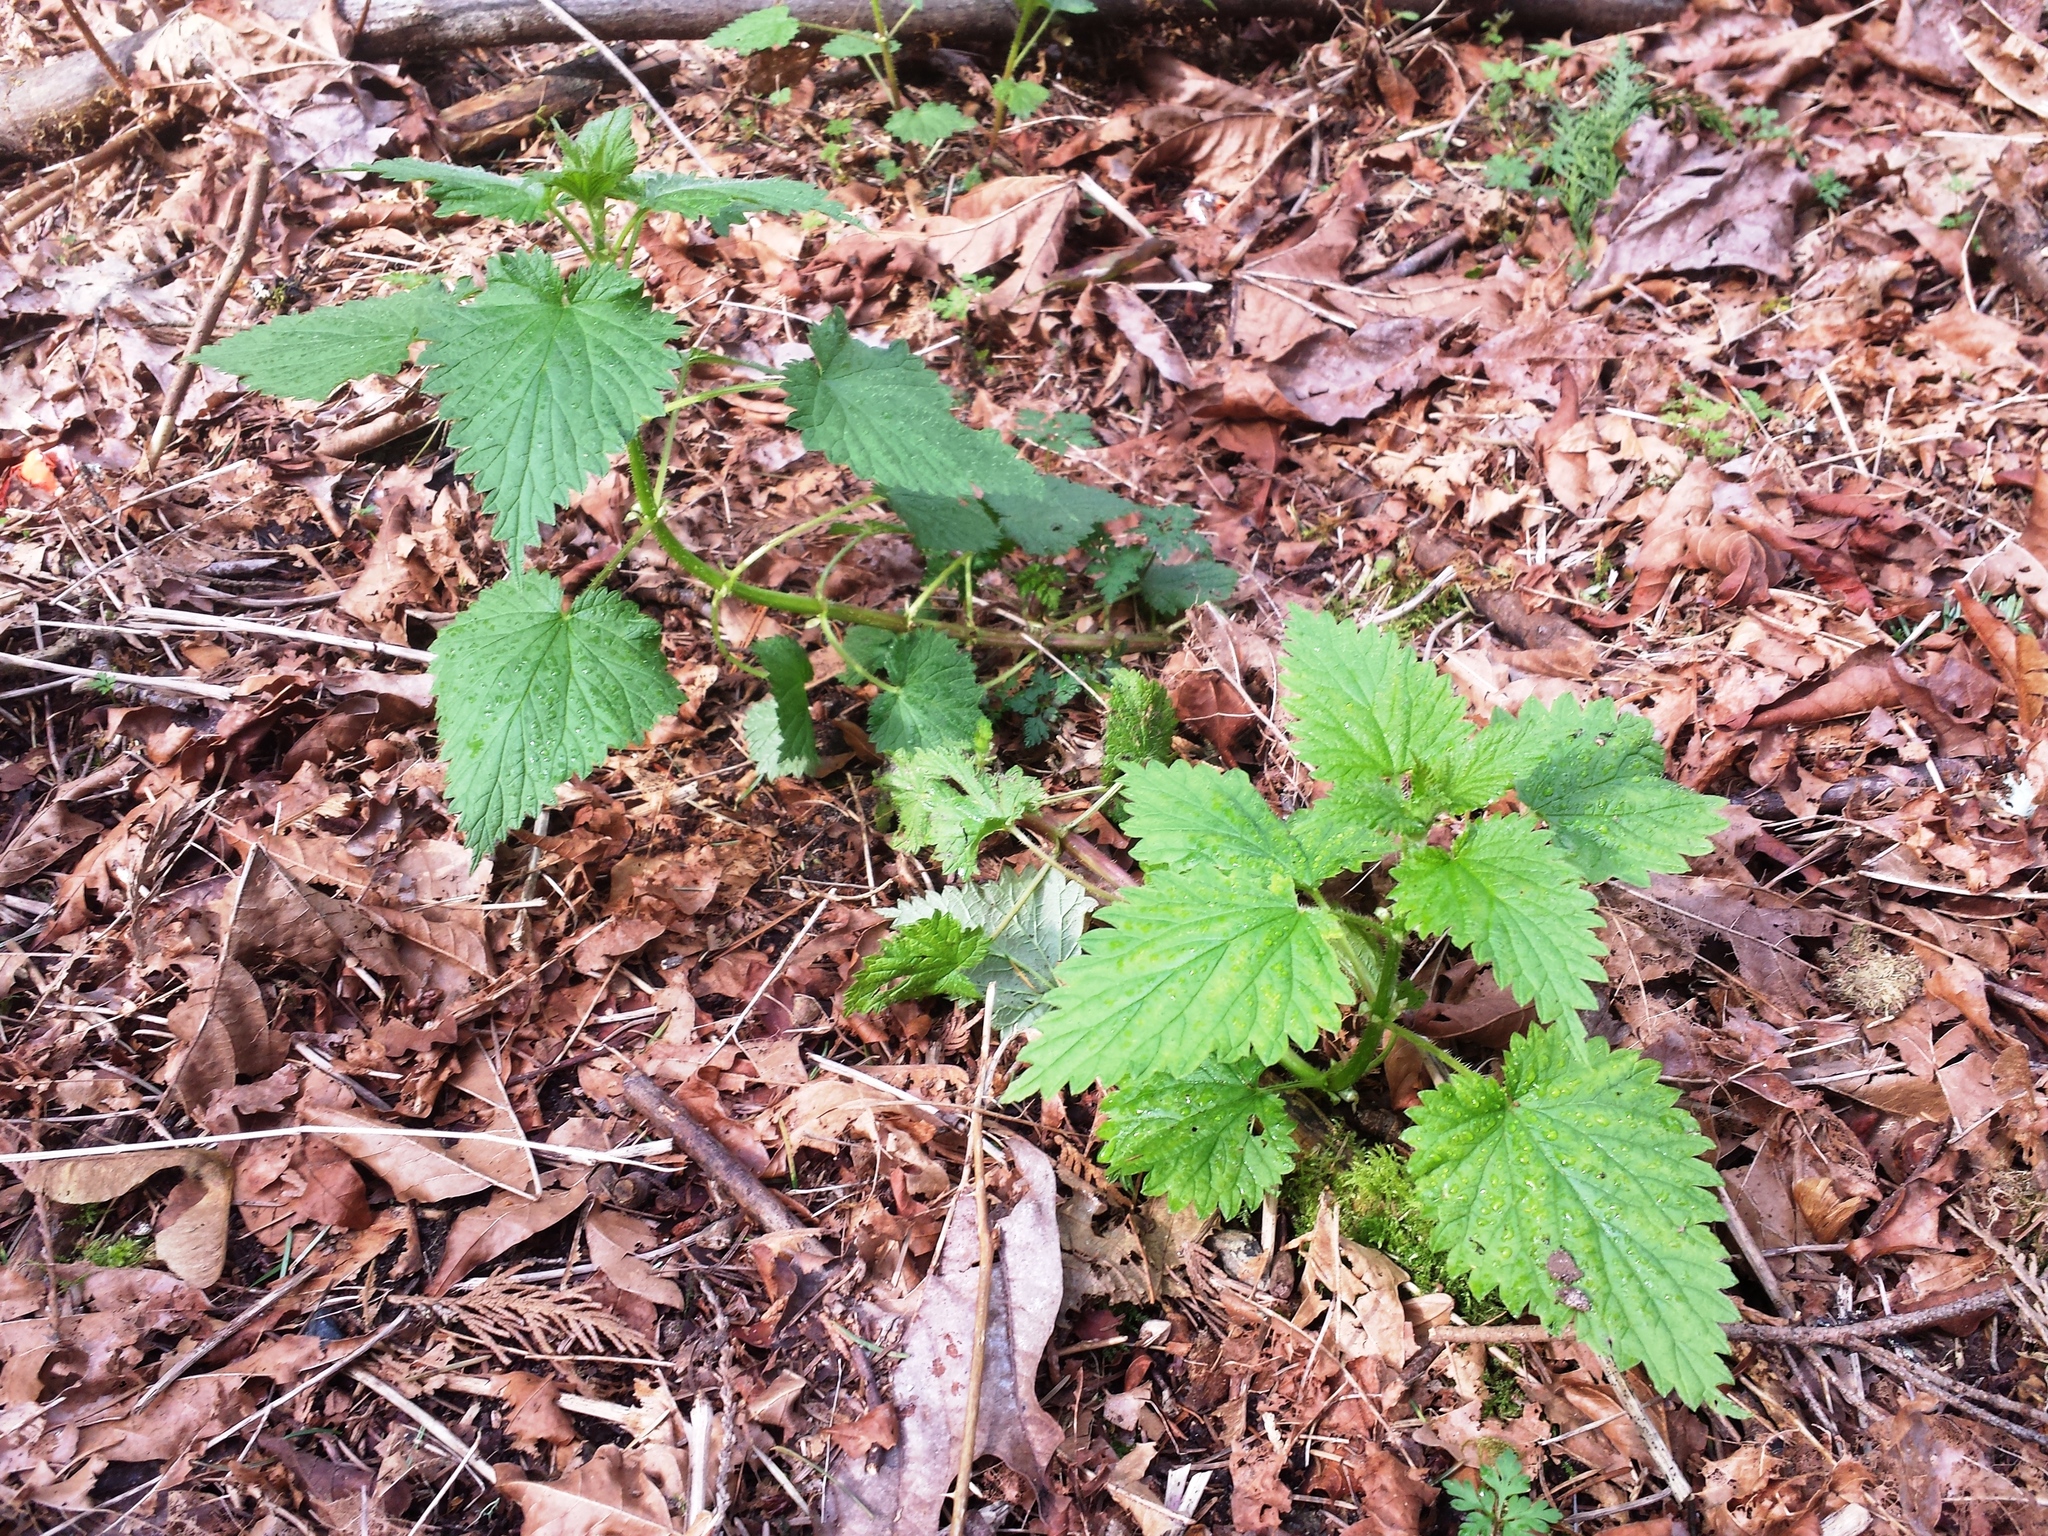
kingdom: Plantae
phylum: Tracheophyta
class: Magnoliopsida
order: Rosales
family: Urticaceae
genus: Urtica
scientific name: Urtica dioica
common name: Common nettle
